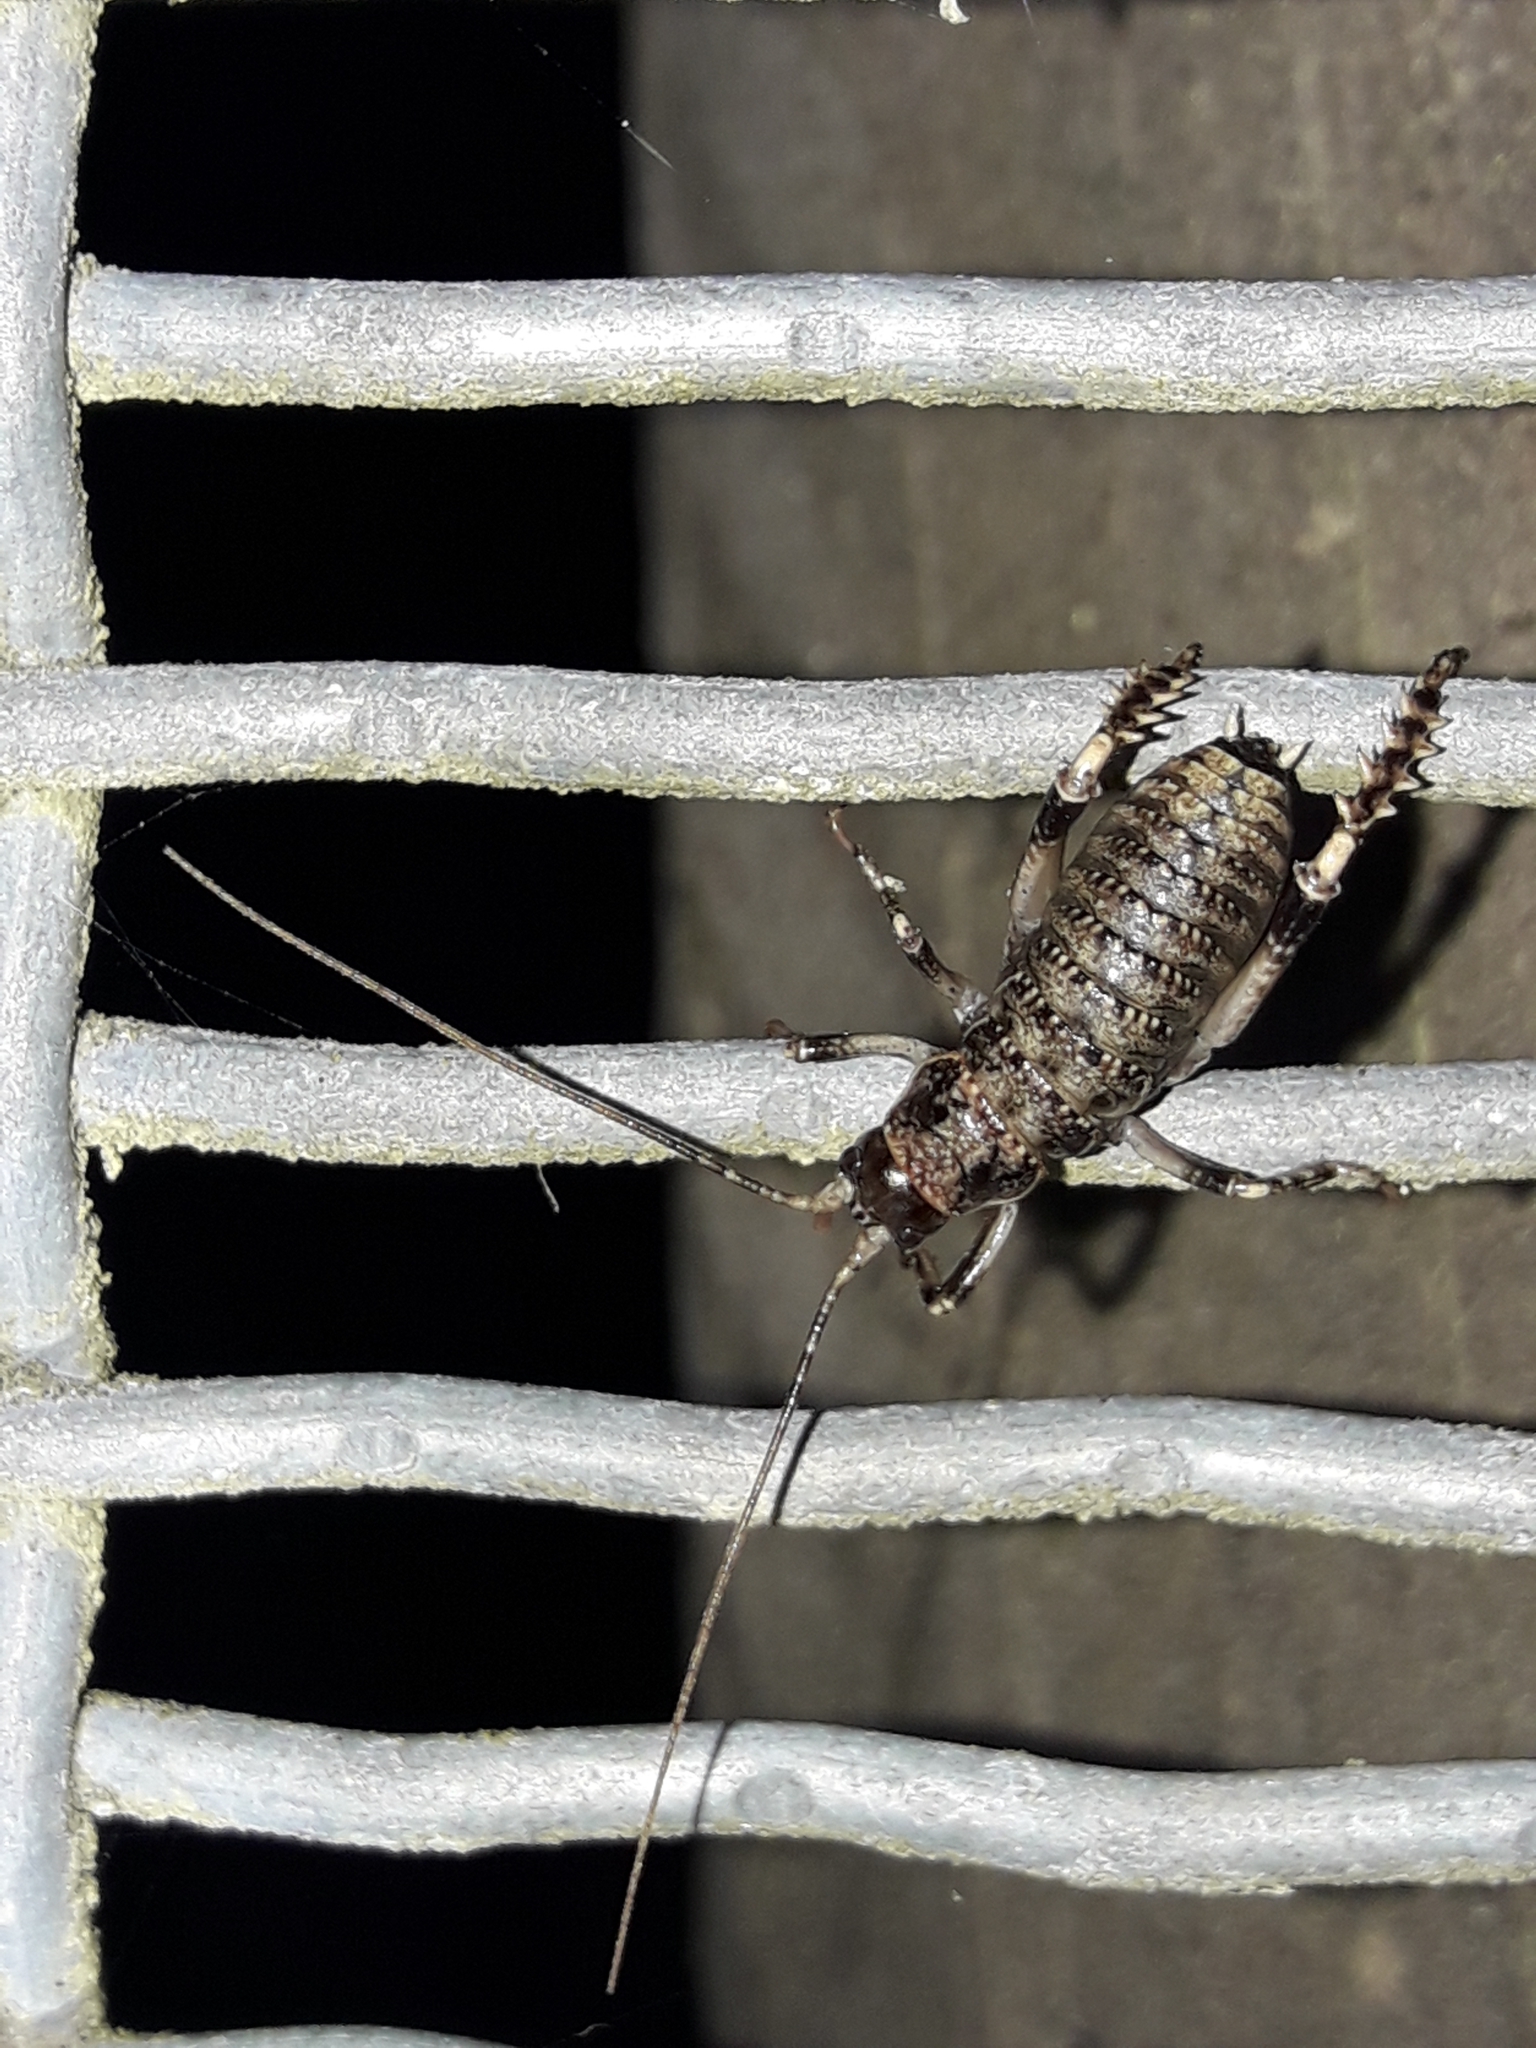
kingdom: Animalia
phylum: Arthropoda
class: Insecta
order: Orthoptera
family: Anostostomatidae
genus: Deinacrida
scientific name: Deinacrida rugosa
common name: Stephens island weta
